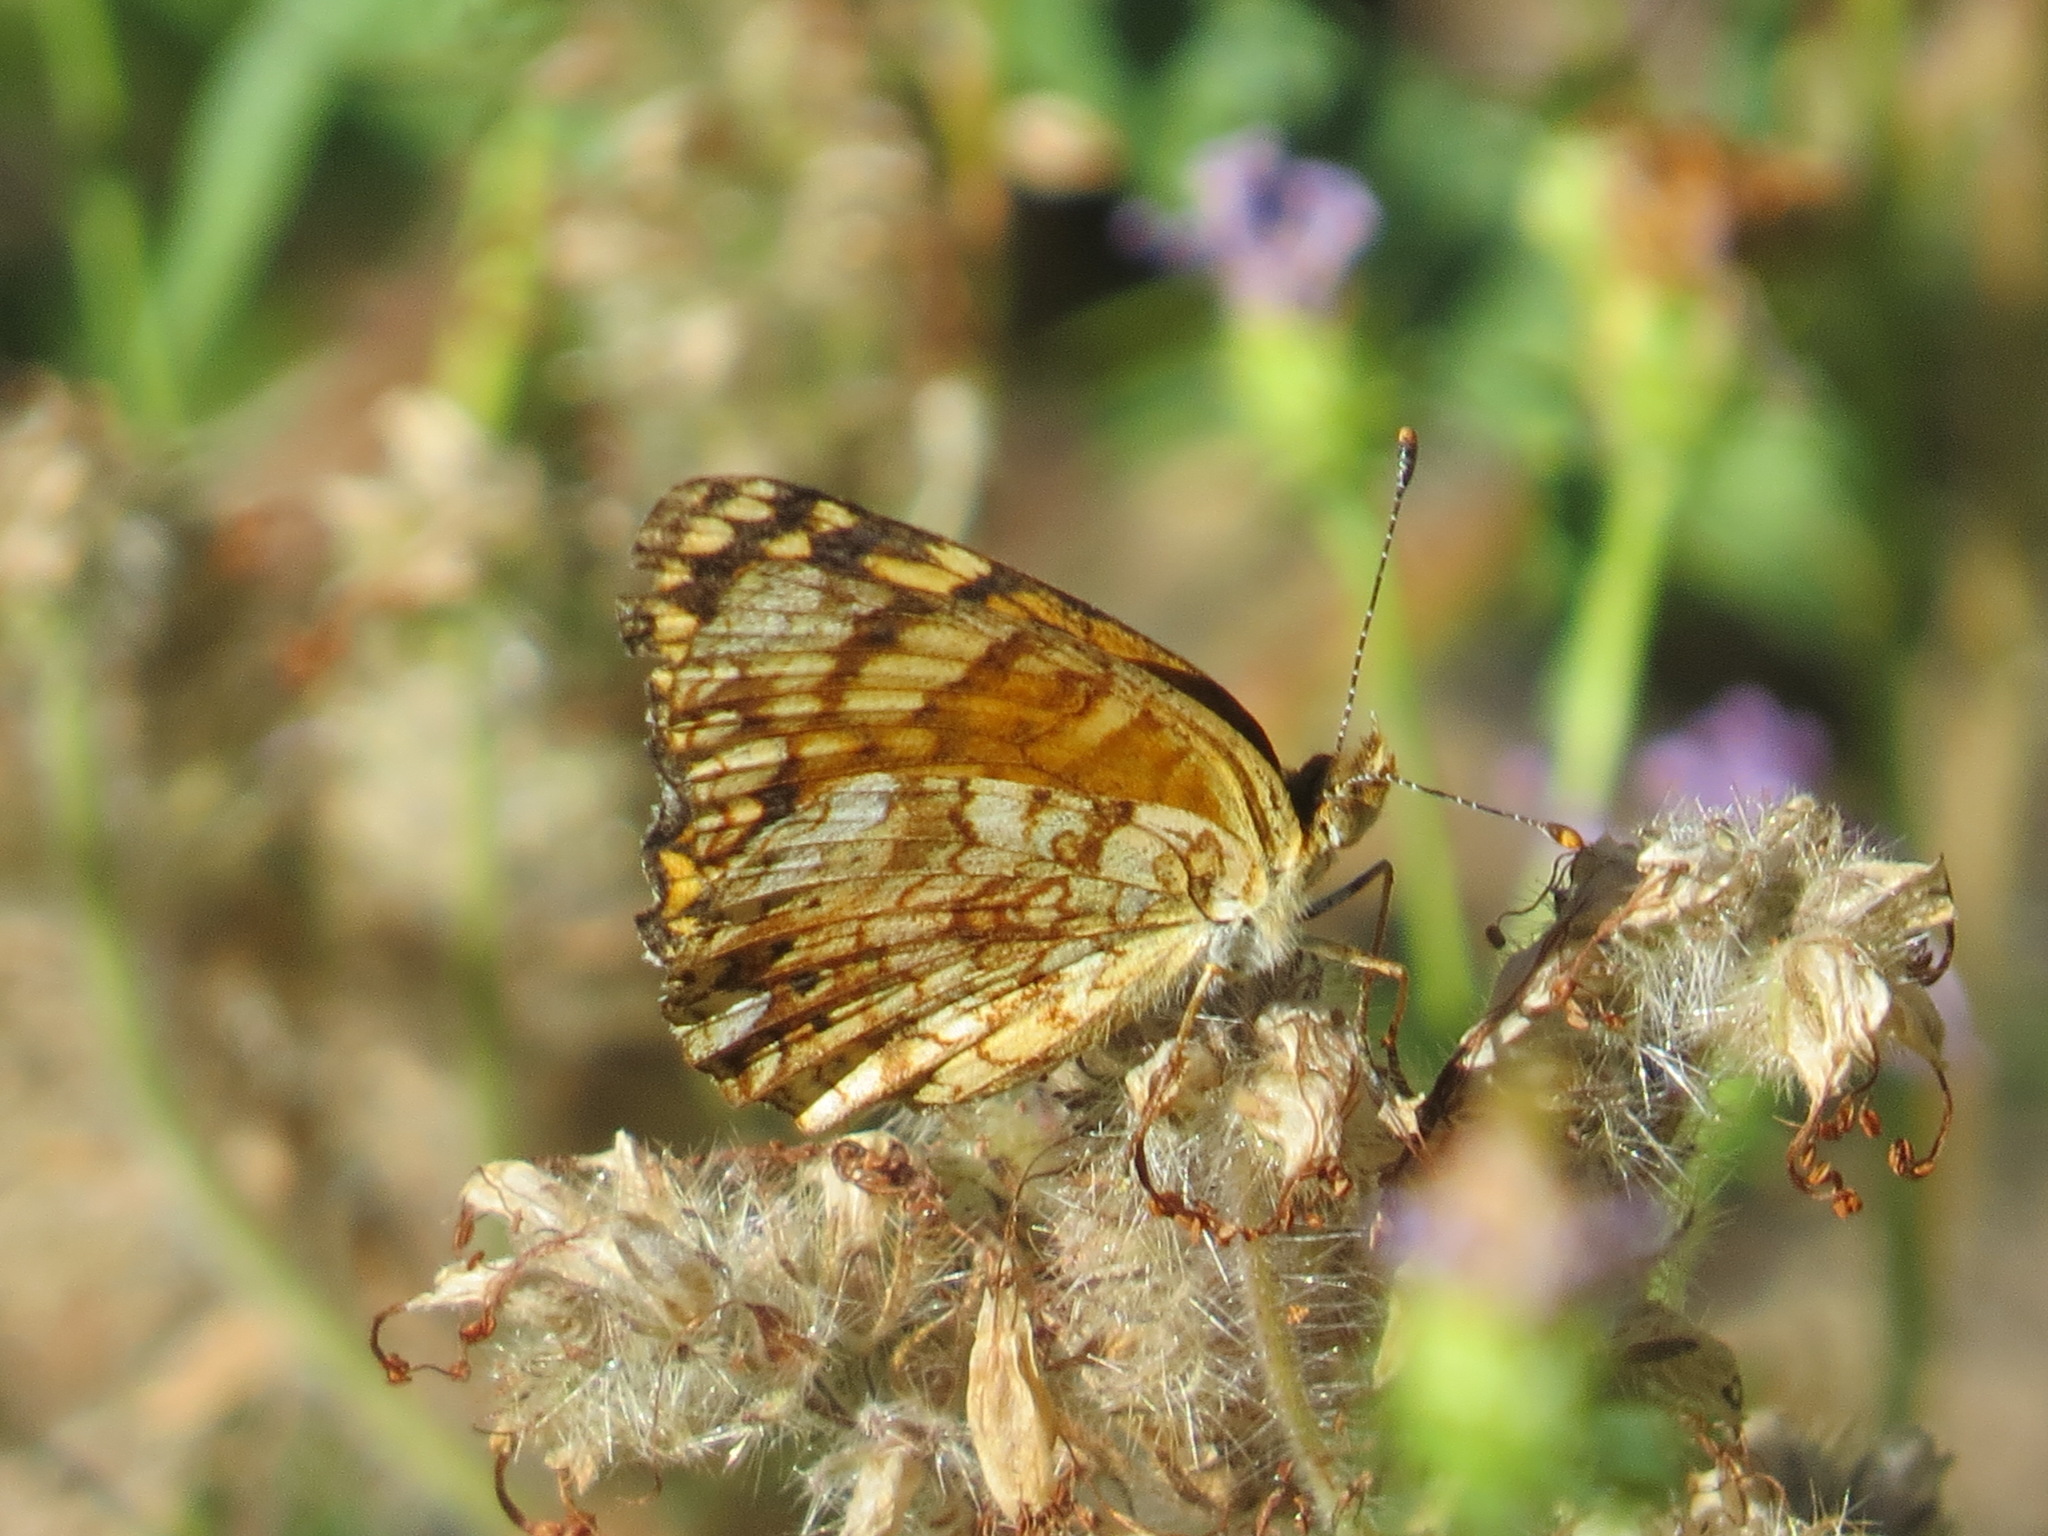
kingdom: Animalia
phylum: Arthropoda
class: Insecta
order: Lepidoptera
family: Nymphalidae
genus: Eresia
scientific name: Eresia aveyrona
